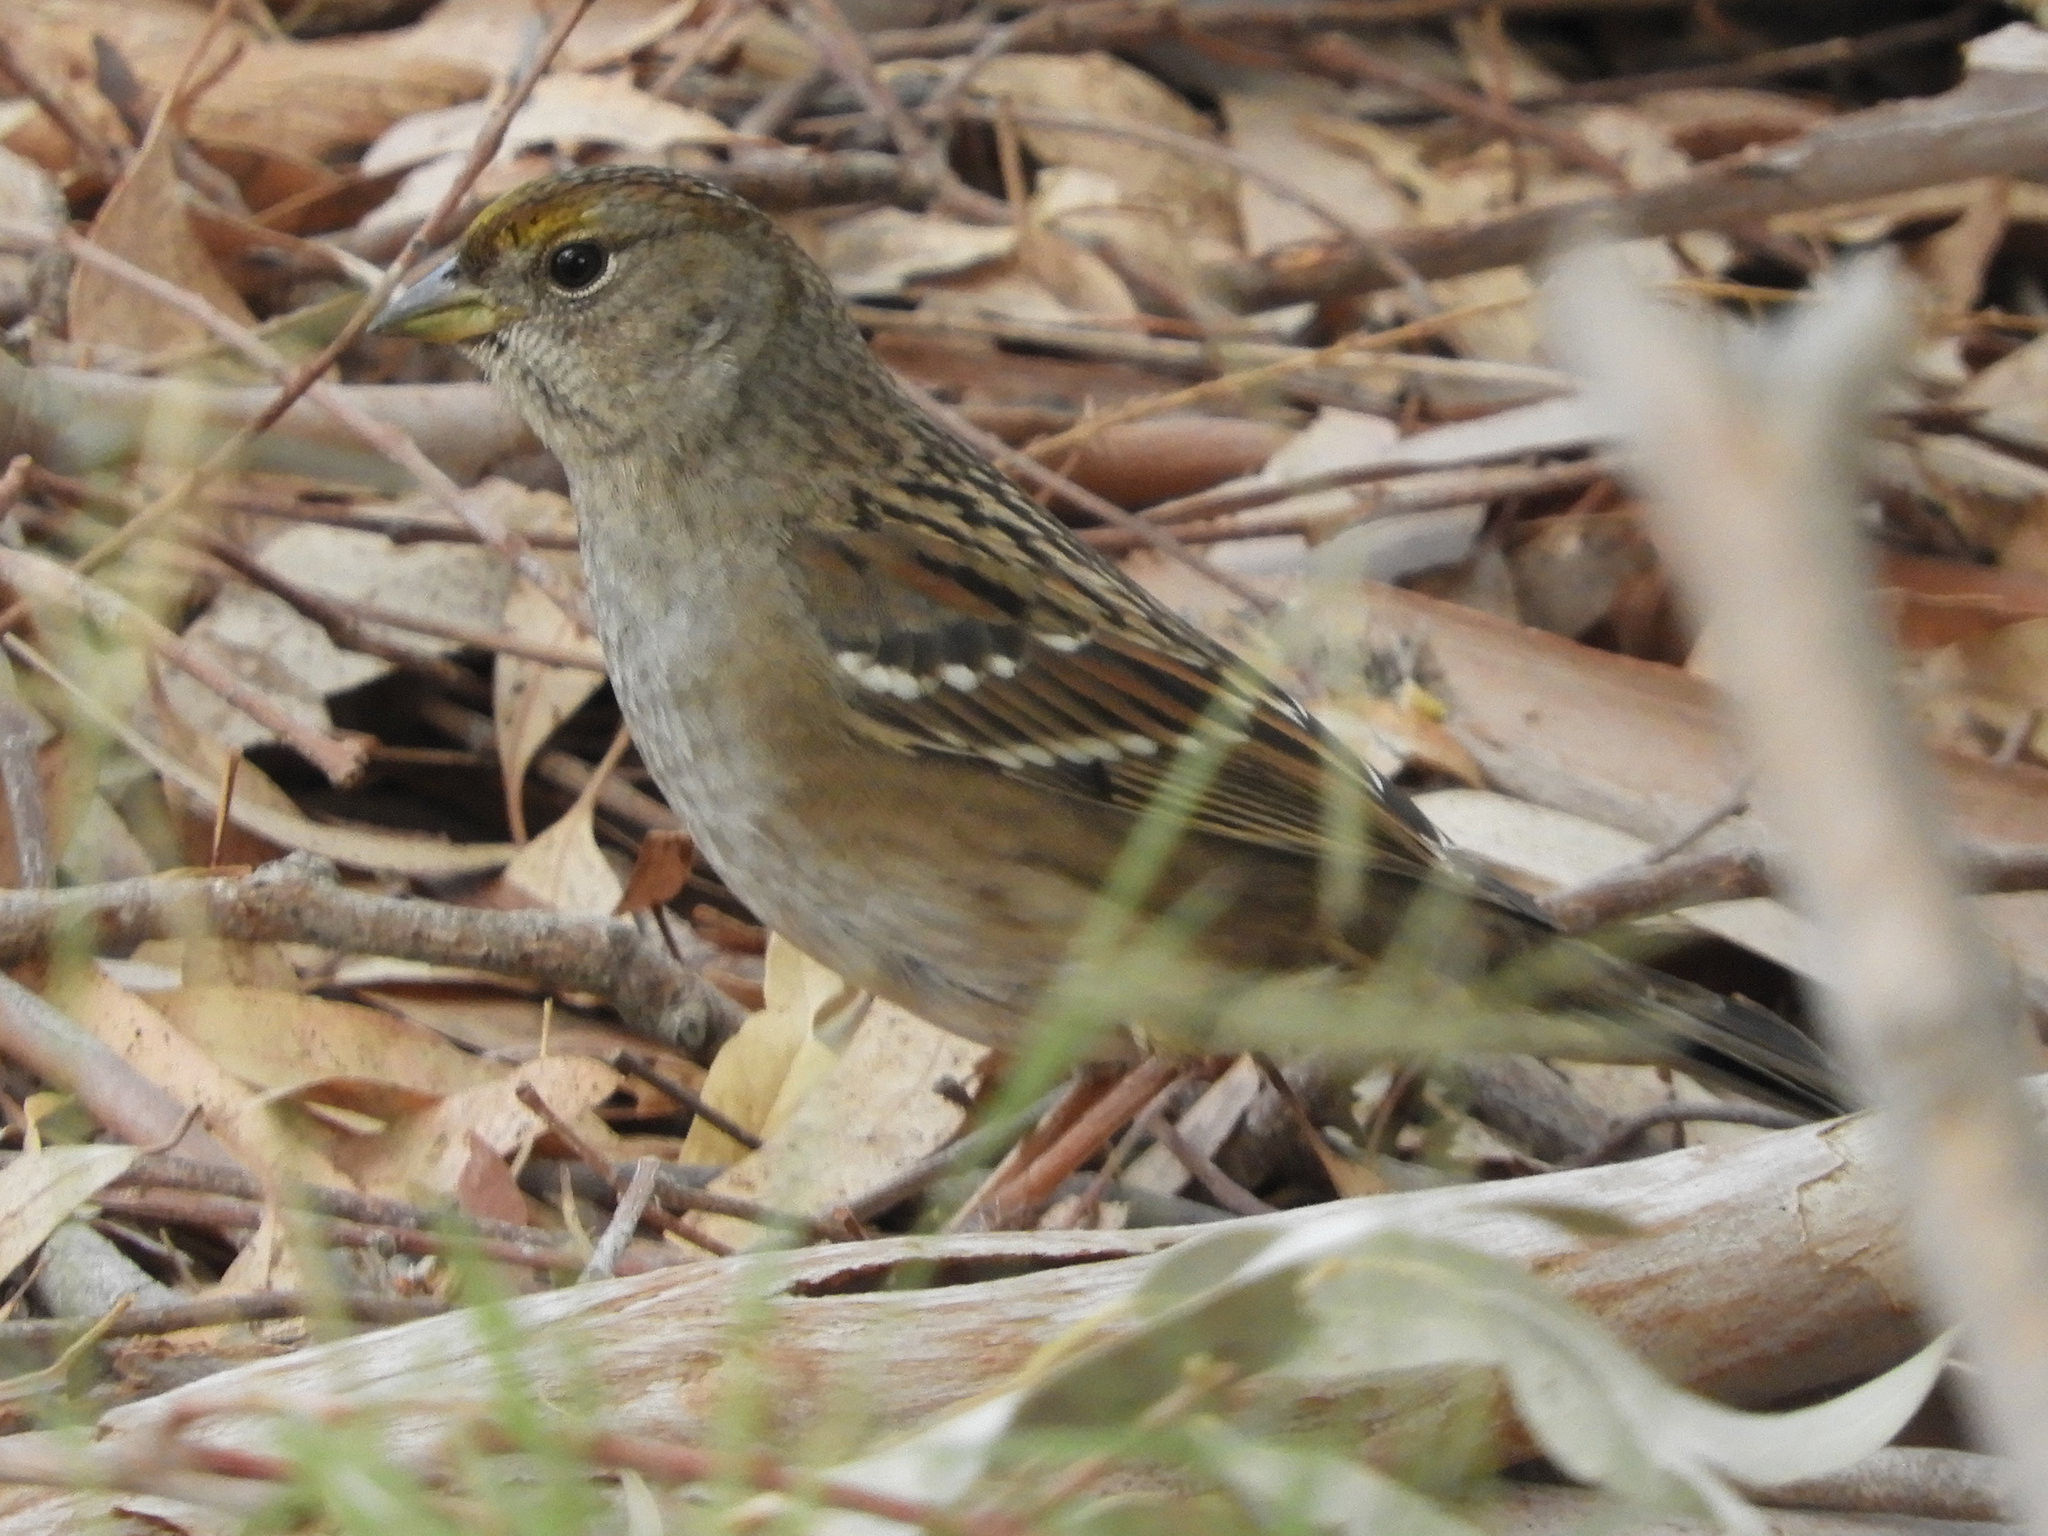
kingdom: Animalia
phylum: Chordata
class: Aves
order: Passeriformes
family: Passerellidae
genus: Zonotrichia
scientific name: Zonotrichia atricapilla
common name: Golden-crowned sparrow
